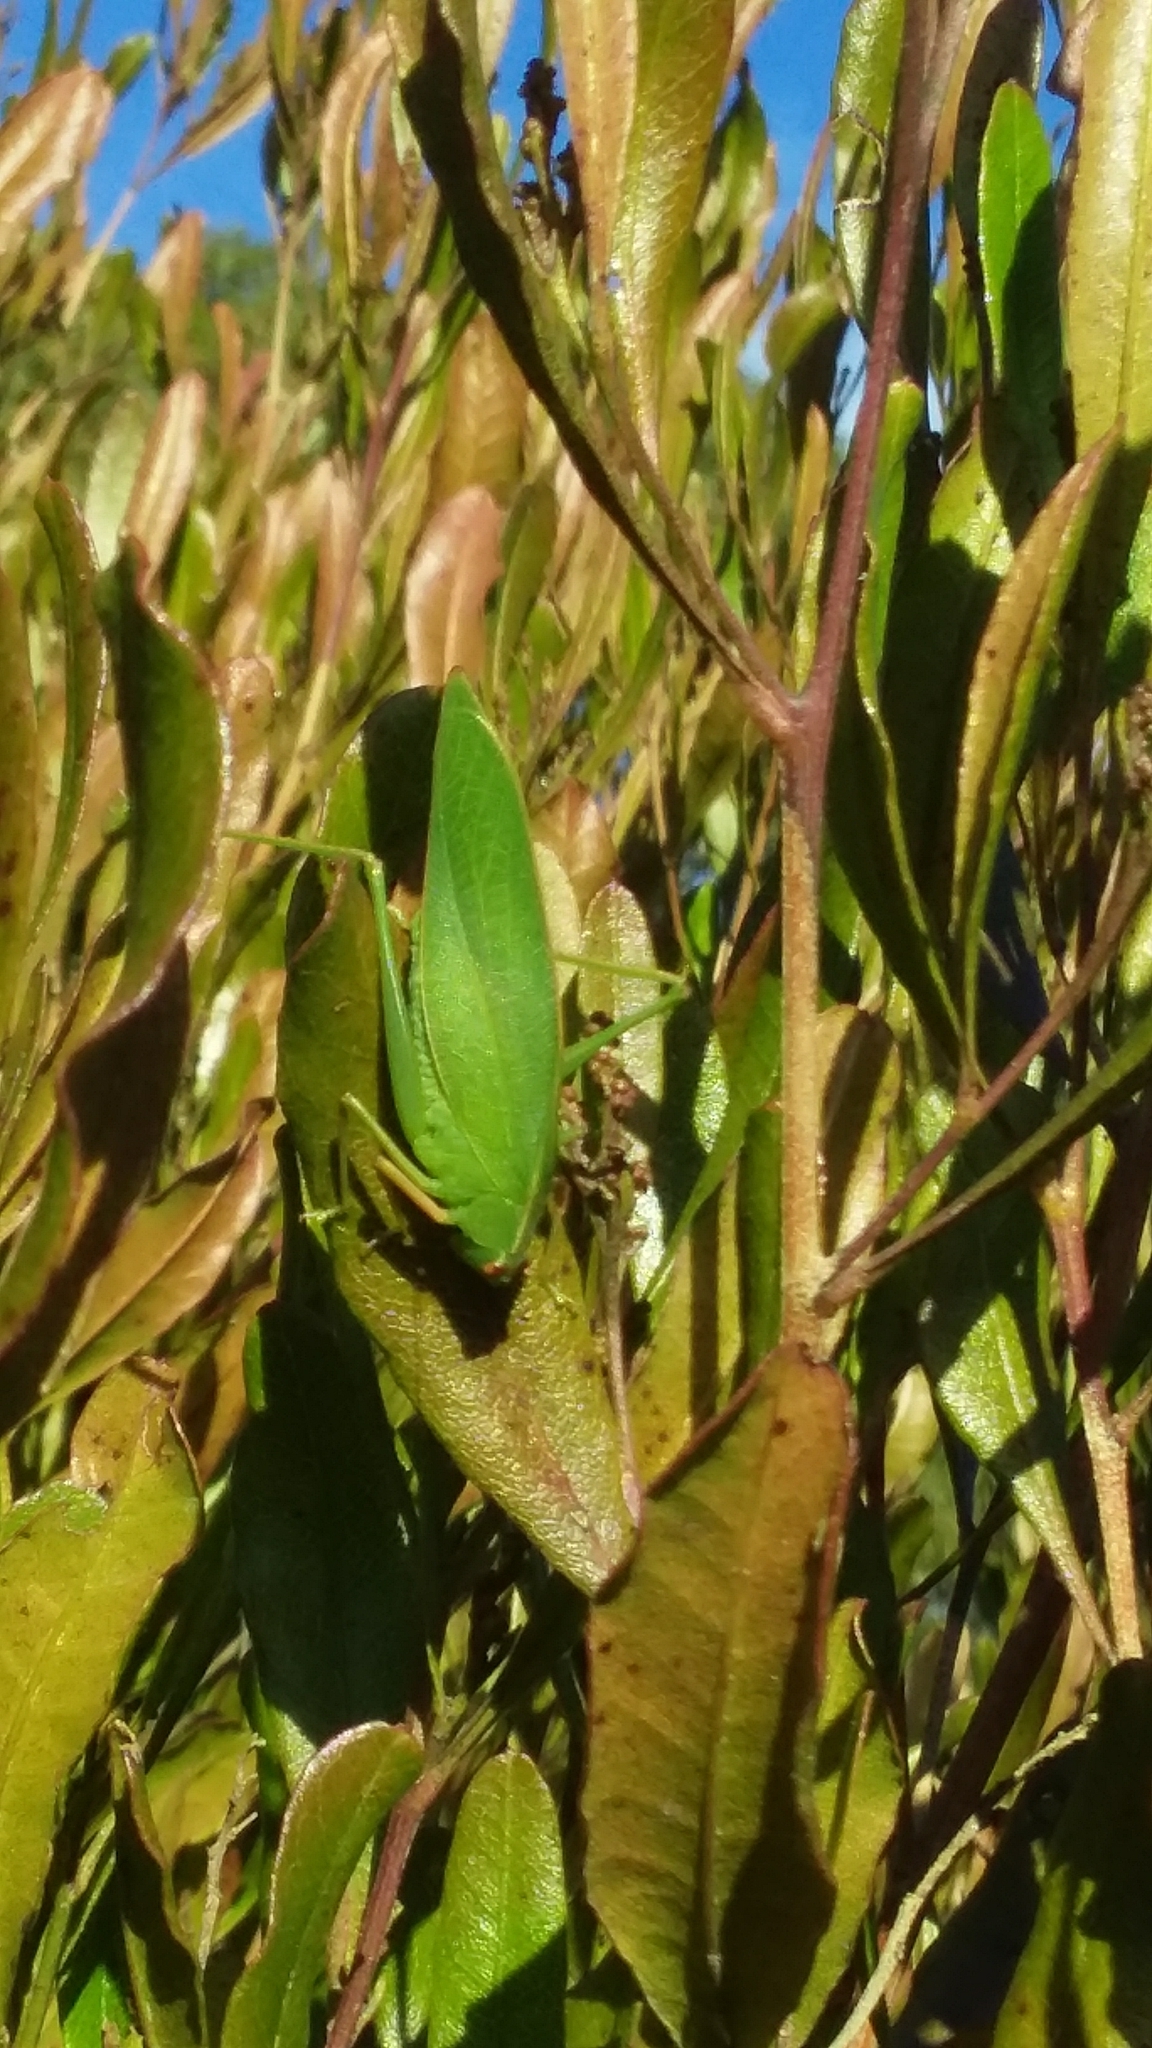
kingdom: Animalia
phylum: Arthropoda
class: Insecta
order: Orthoptera
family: Tettigoniidae
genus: Caedicia
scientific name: Caedicia simplex
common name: Common garden katydid
